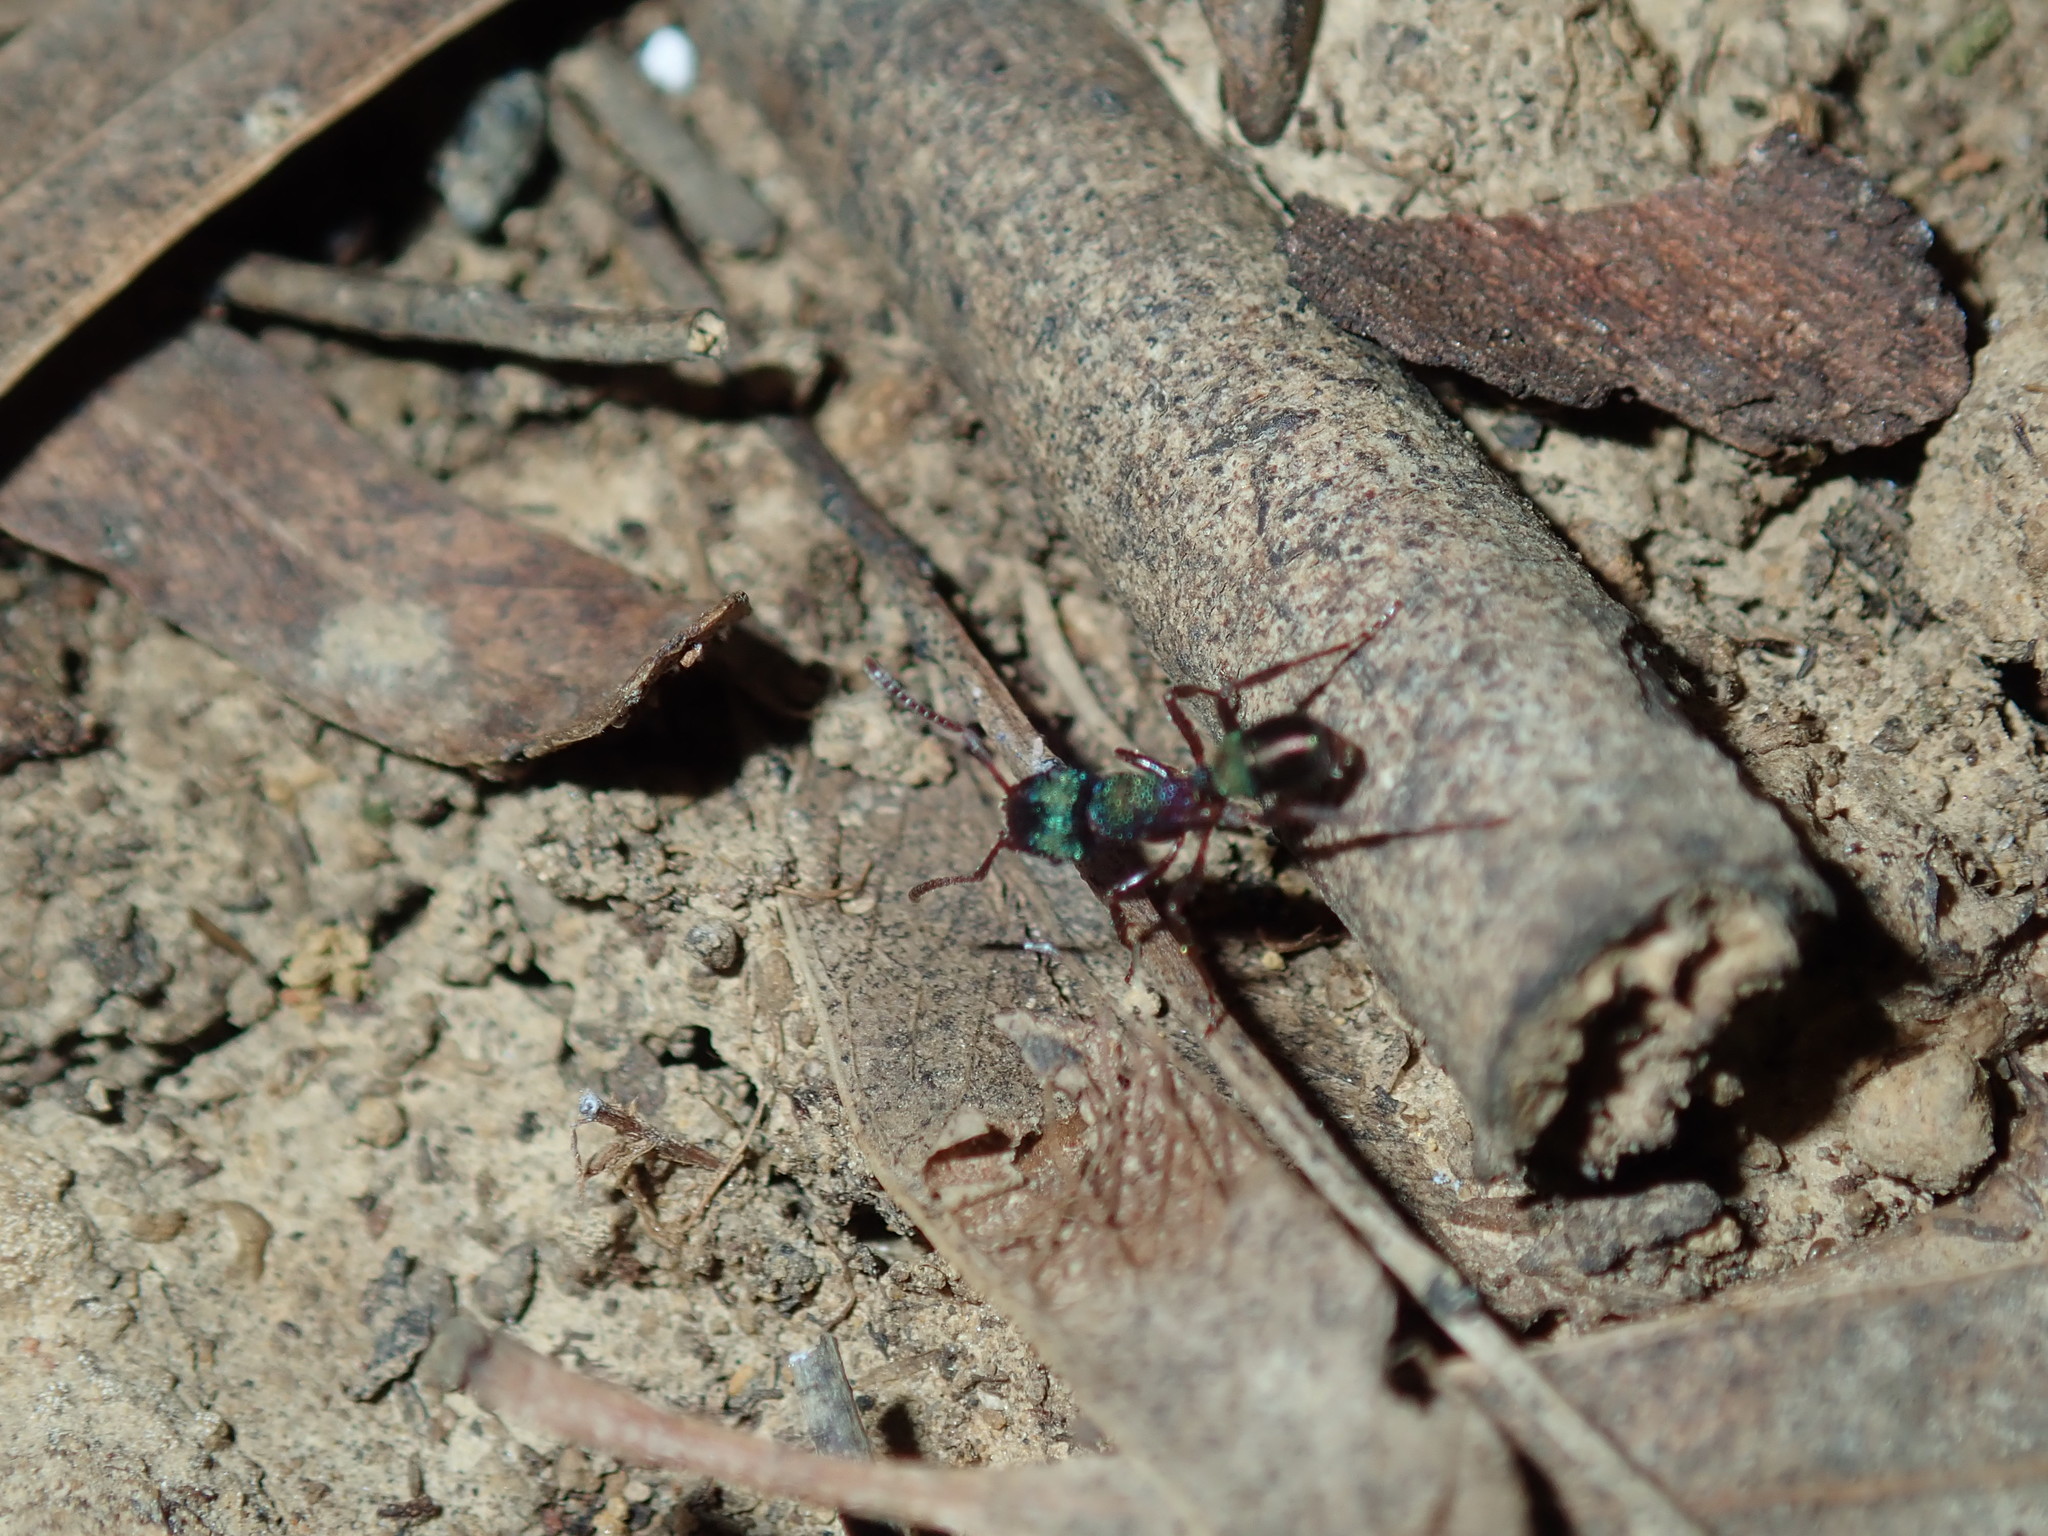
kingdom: Animalia
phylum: Arthropoda
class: Insecta
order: Hymenoptera
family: Formicidae
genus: Rhytidoponera
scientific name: Rhytidoponera metallica
